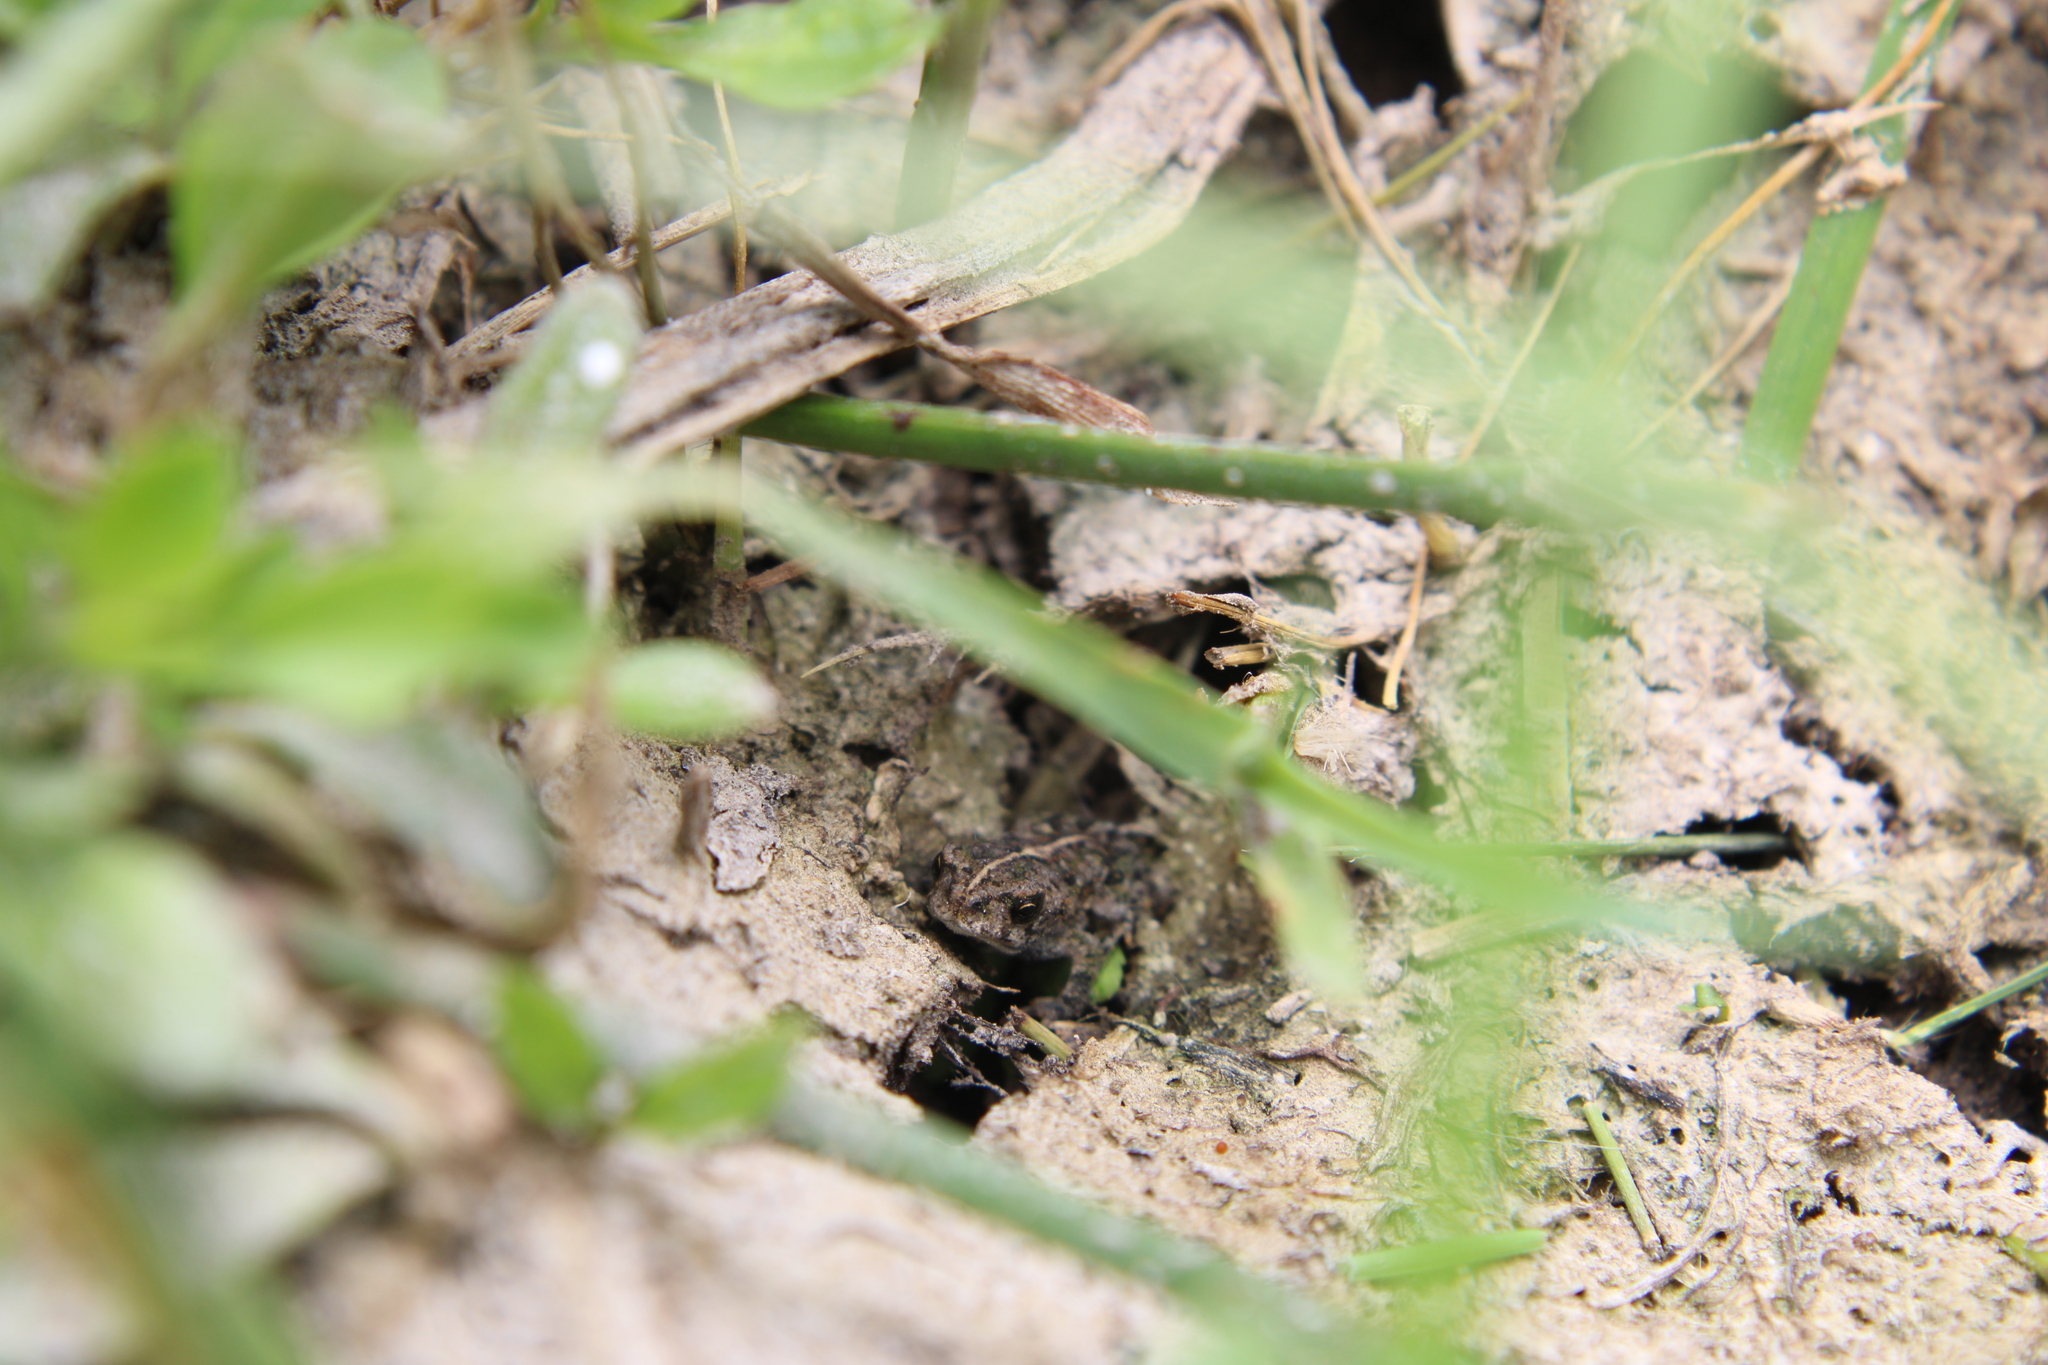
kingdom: Animalia
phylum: Chordata
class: Amphibia
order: Anura
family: Bufonidae
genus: Rhinella
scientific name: Rhinella dorbignyi
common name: D´orbigny’s toad
